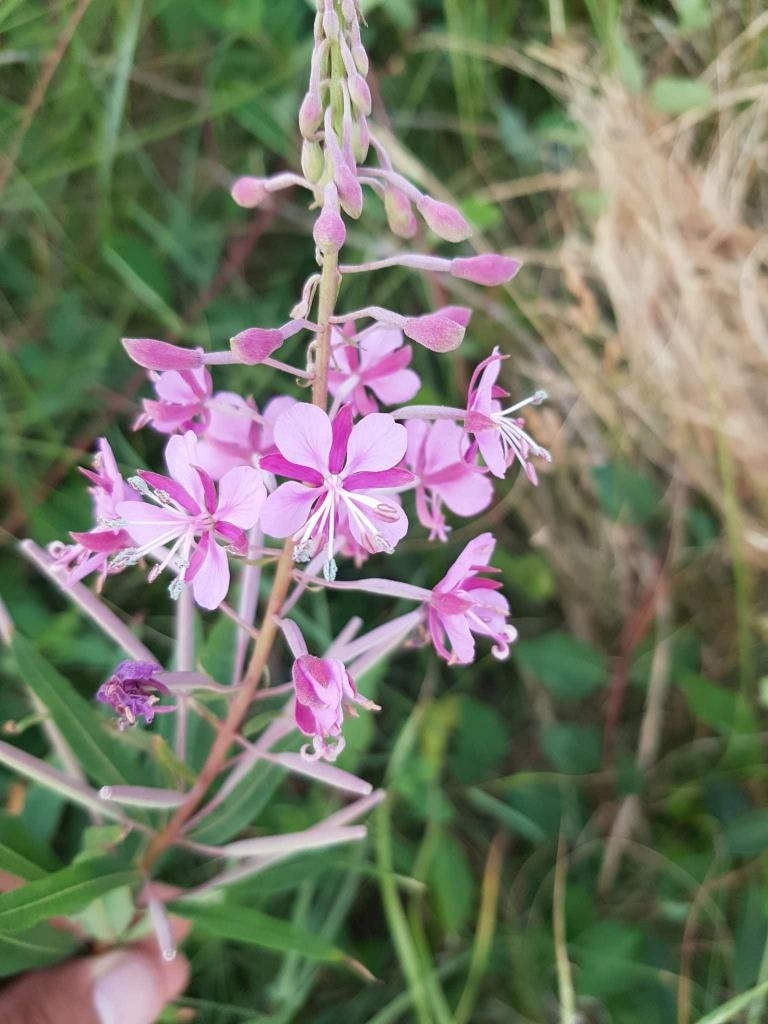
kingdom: Plantae
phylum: Tracheophyta
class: Magnoliopsida
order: Myrtales
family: Onagraceae
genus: Chamaenerion
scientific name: Chamaenerion angustifolium
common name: Fireweed
